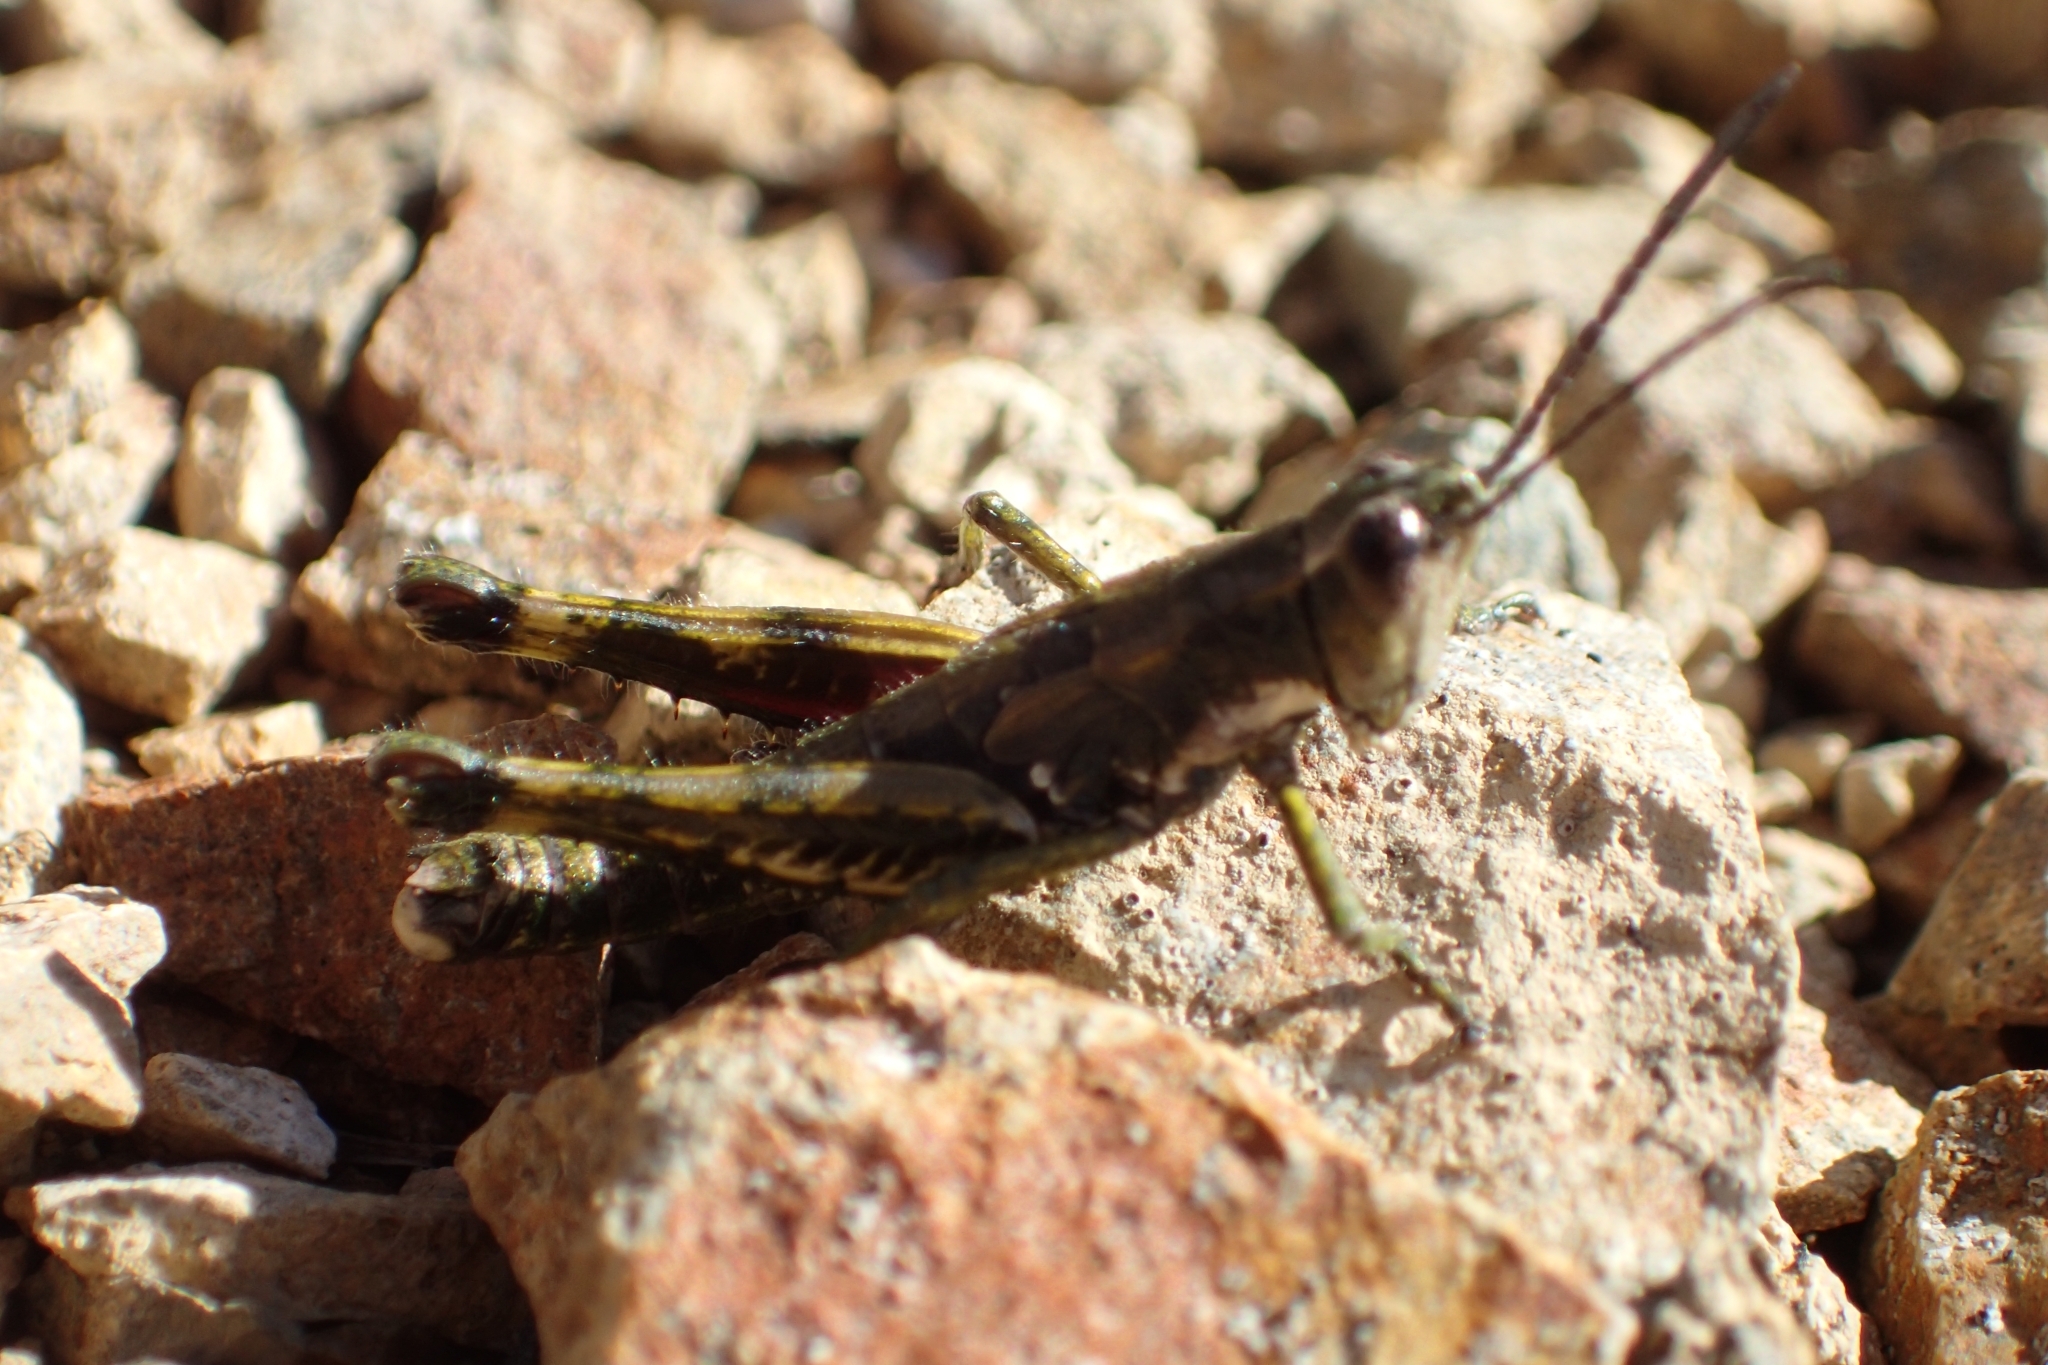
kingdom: Animalia
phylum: Arthropoda
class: Insecta
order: Orthoptera
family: Acrididae
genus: Sigaus
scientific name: Sigaus piliferus
